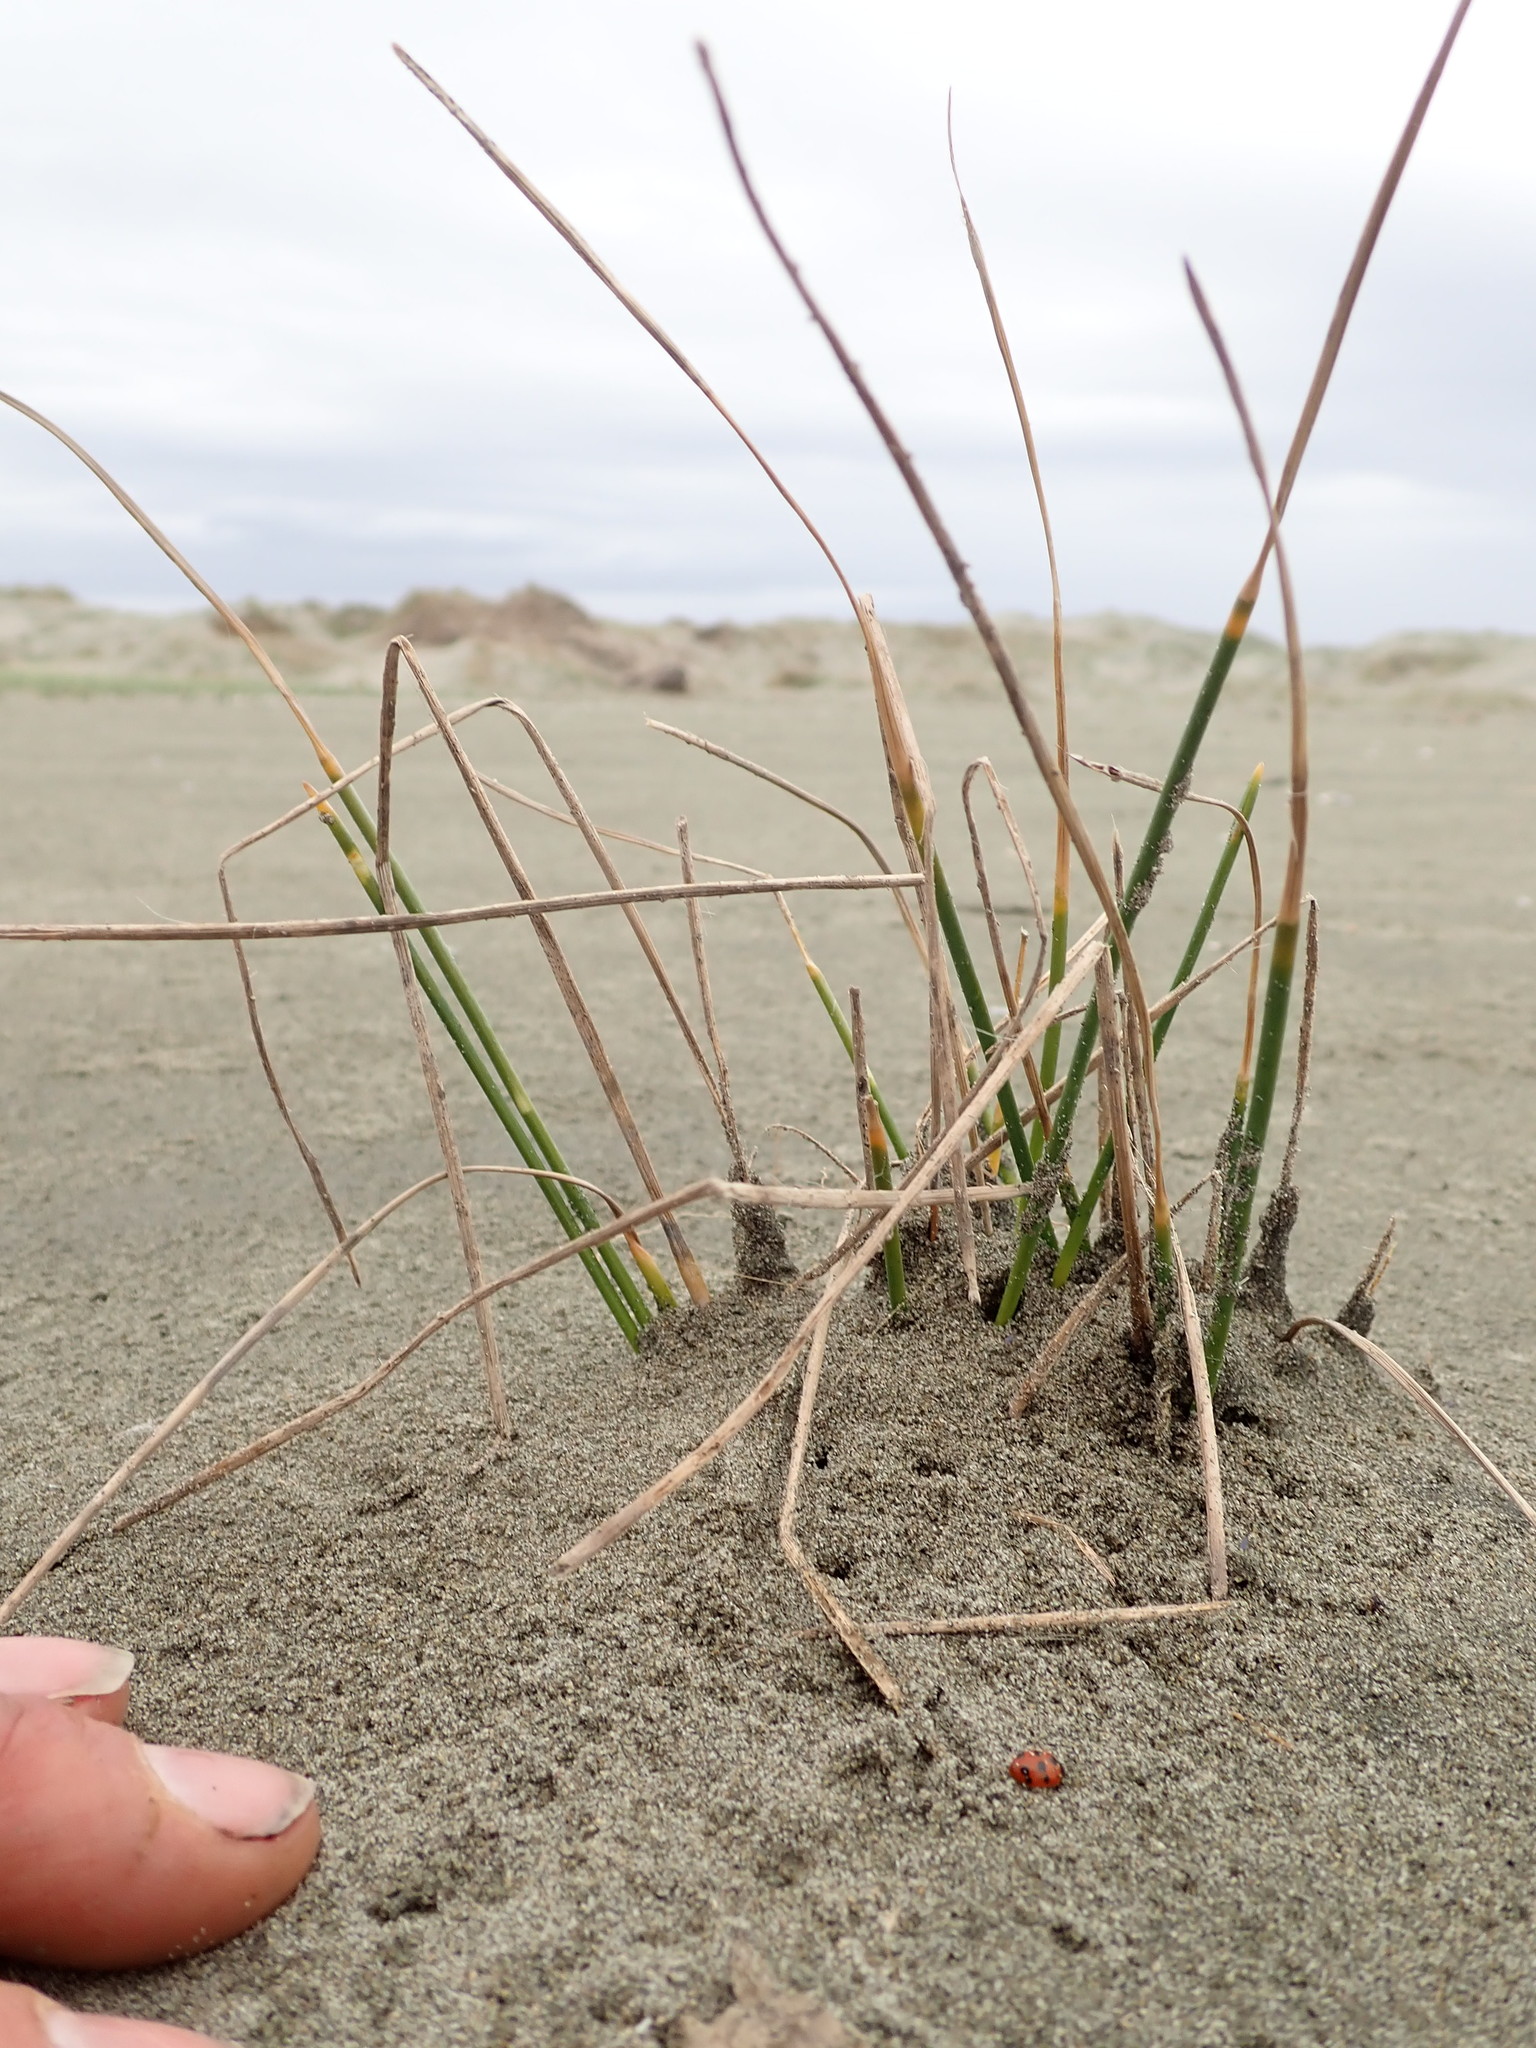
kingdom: Animalia
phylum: Arthropoda
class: Insecta
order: Coleoptera
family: Coccinellidae
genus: Coccinella
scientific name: Coccinella undecimpunctata
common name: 11-spot ladybird
